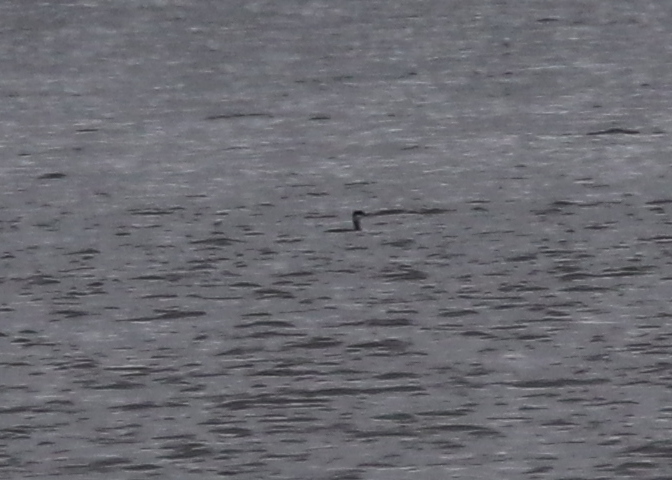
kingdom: Animalia
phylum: Chordata
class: Aves
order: Podicipediformes
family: Podicipedidae
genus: Podiceps
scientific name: Podiceps auritus
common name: Horned grebe
